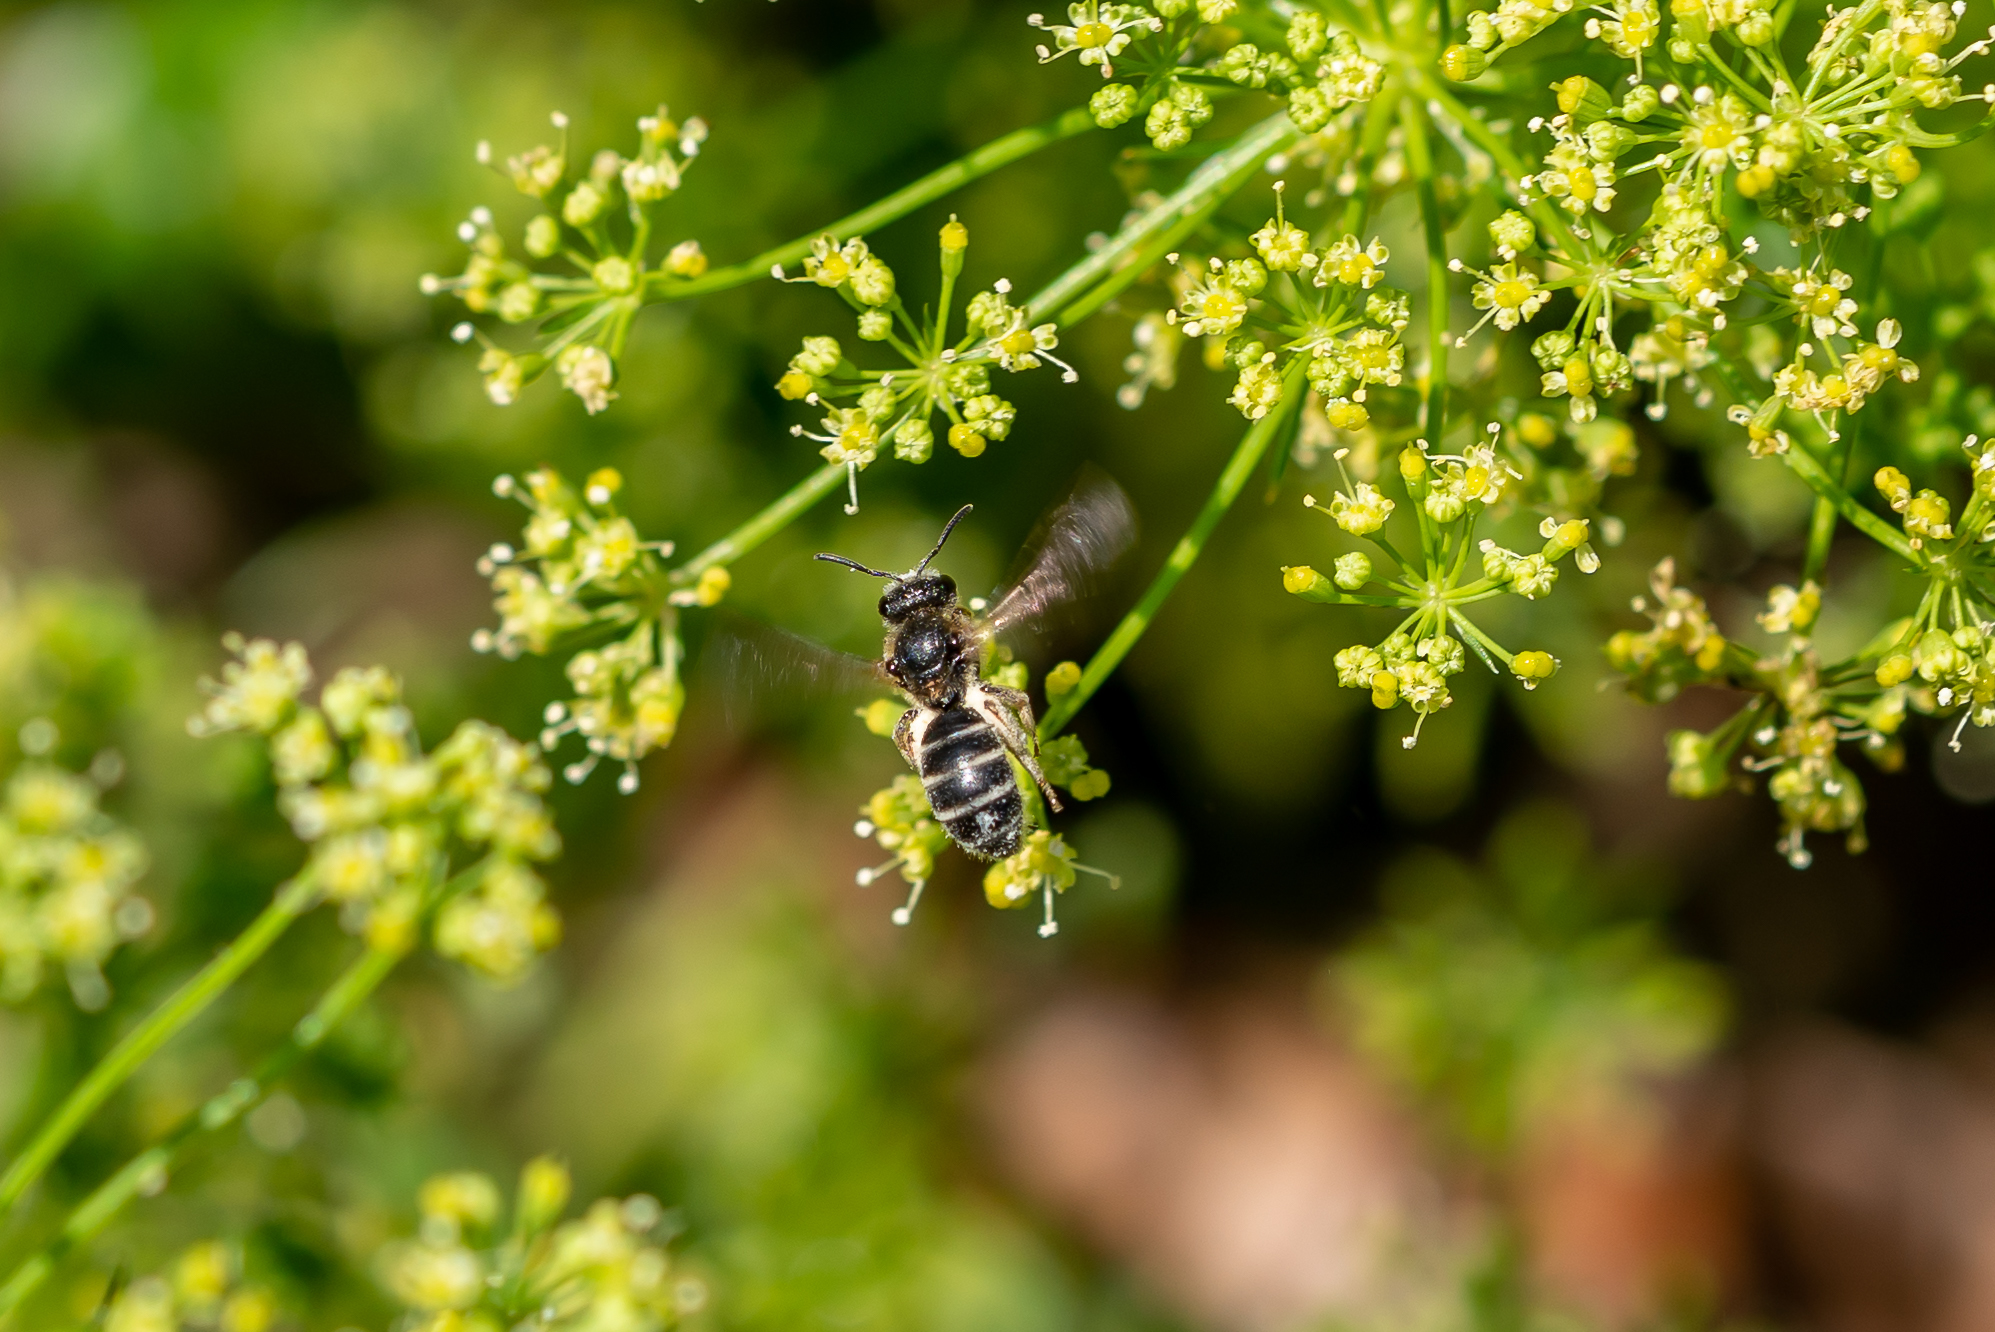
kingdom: Animalia
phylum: Arthropoda
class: Insecta
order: Hymenoptera
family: Halictidae
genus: Halictus
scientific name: Halictus rubicundus
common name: Orange-legged furrow bee
